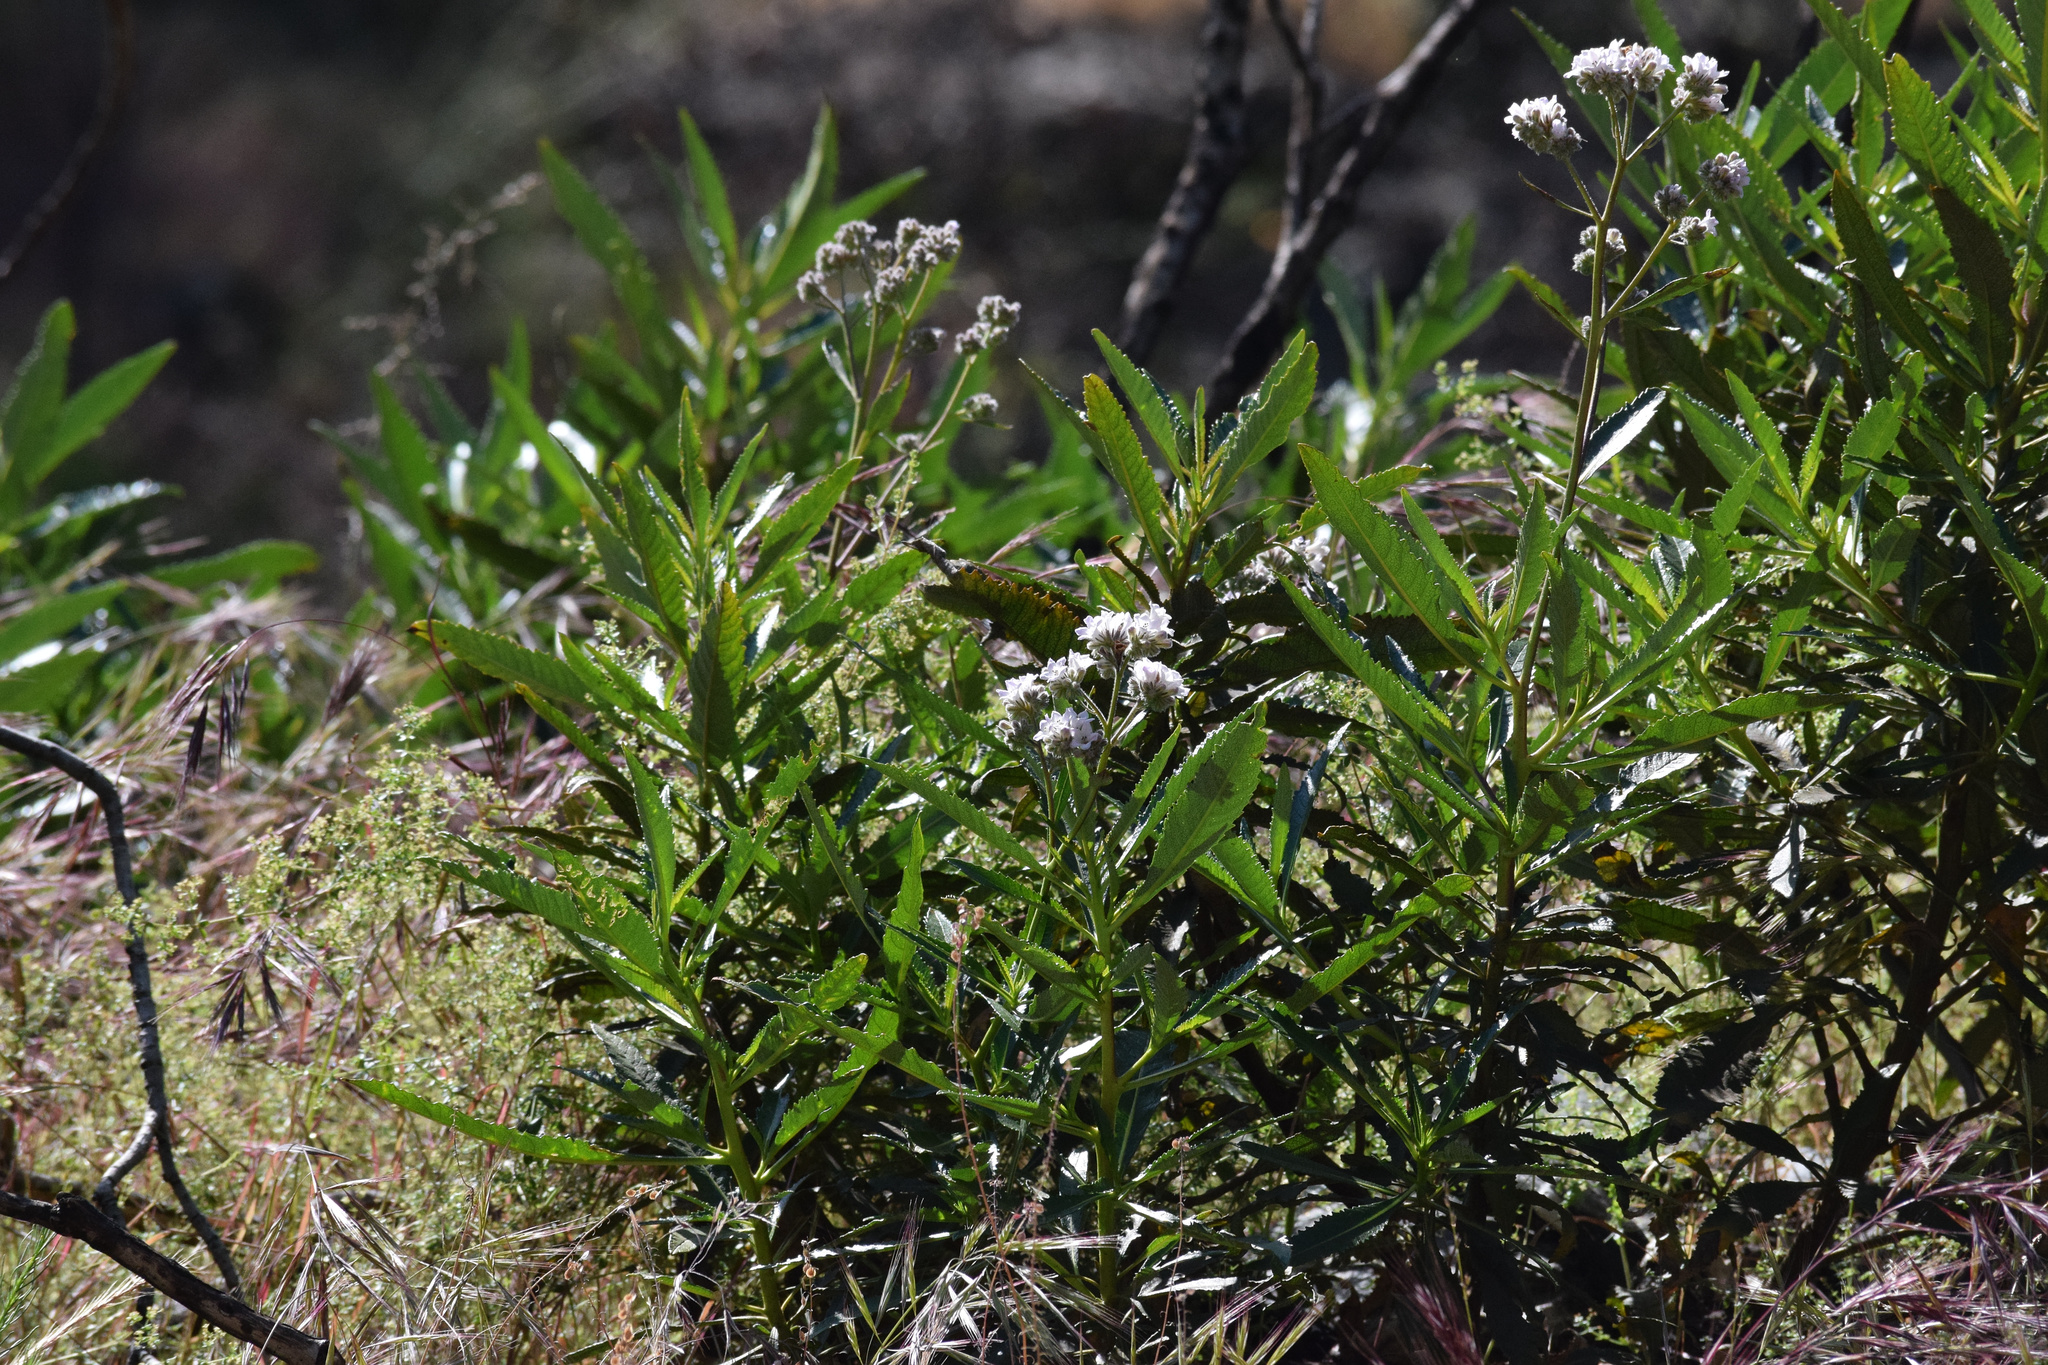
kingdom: Plantae
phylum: Tracheophyta
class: Magnoliopsida
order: Boraginales
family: Namaceae
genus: Eriodictyon
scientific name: Eriodictyon trichocalyx
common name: Hairy yerba-santa
